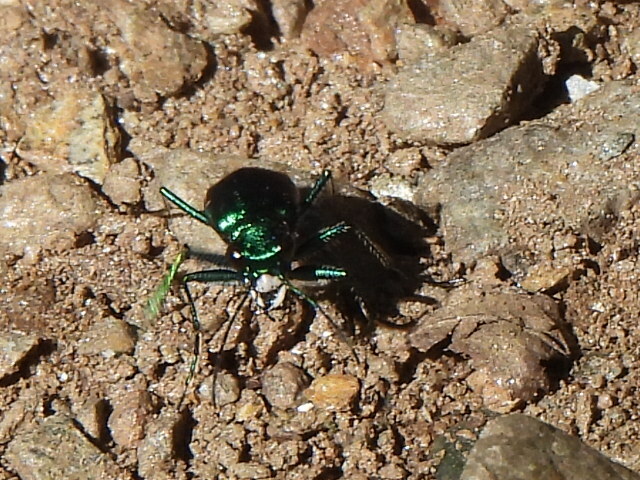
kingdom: Animalia
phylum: Arthropoda
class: Insecta
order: Coleoptera
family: Carabidae
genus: Cicindela
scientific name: Cicindela sexguttata
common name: Six-spotted tiger beetle
